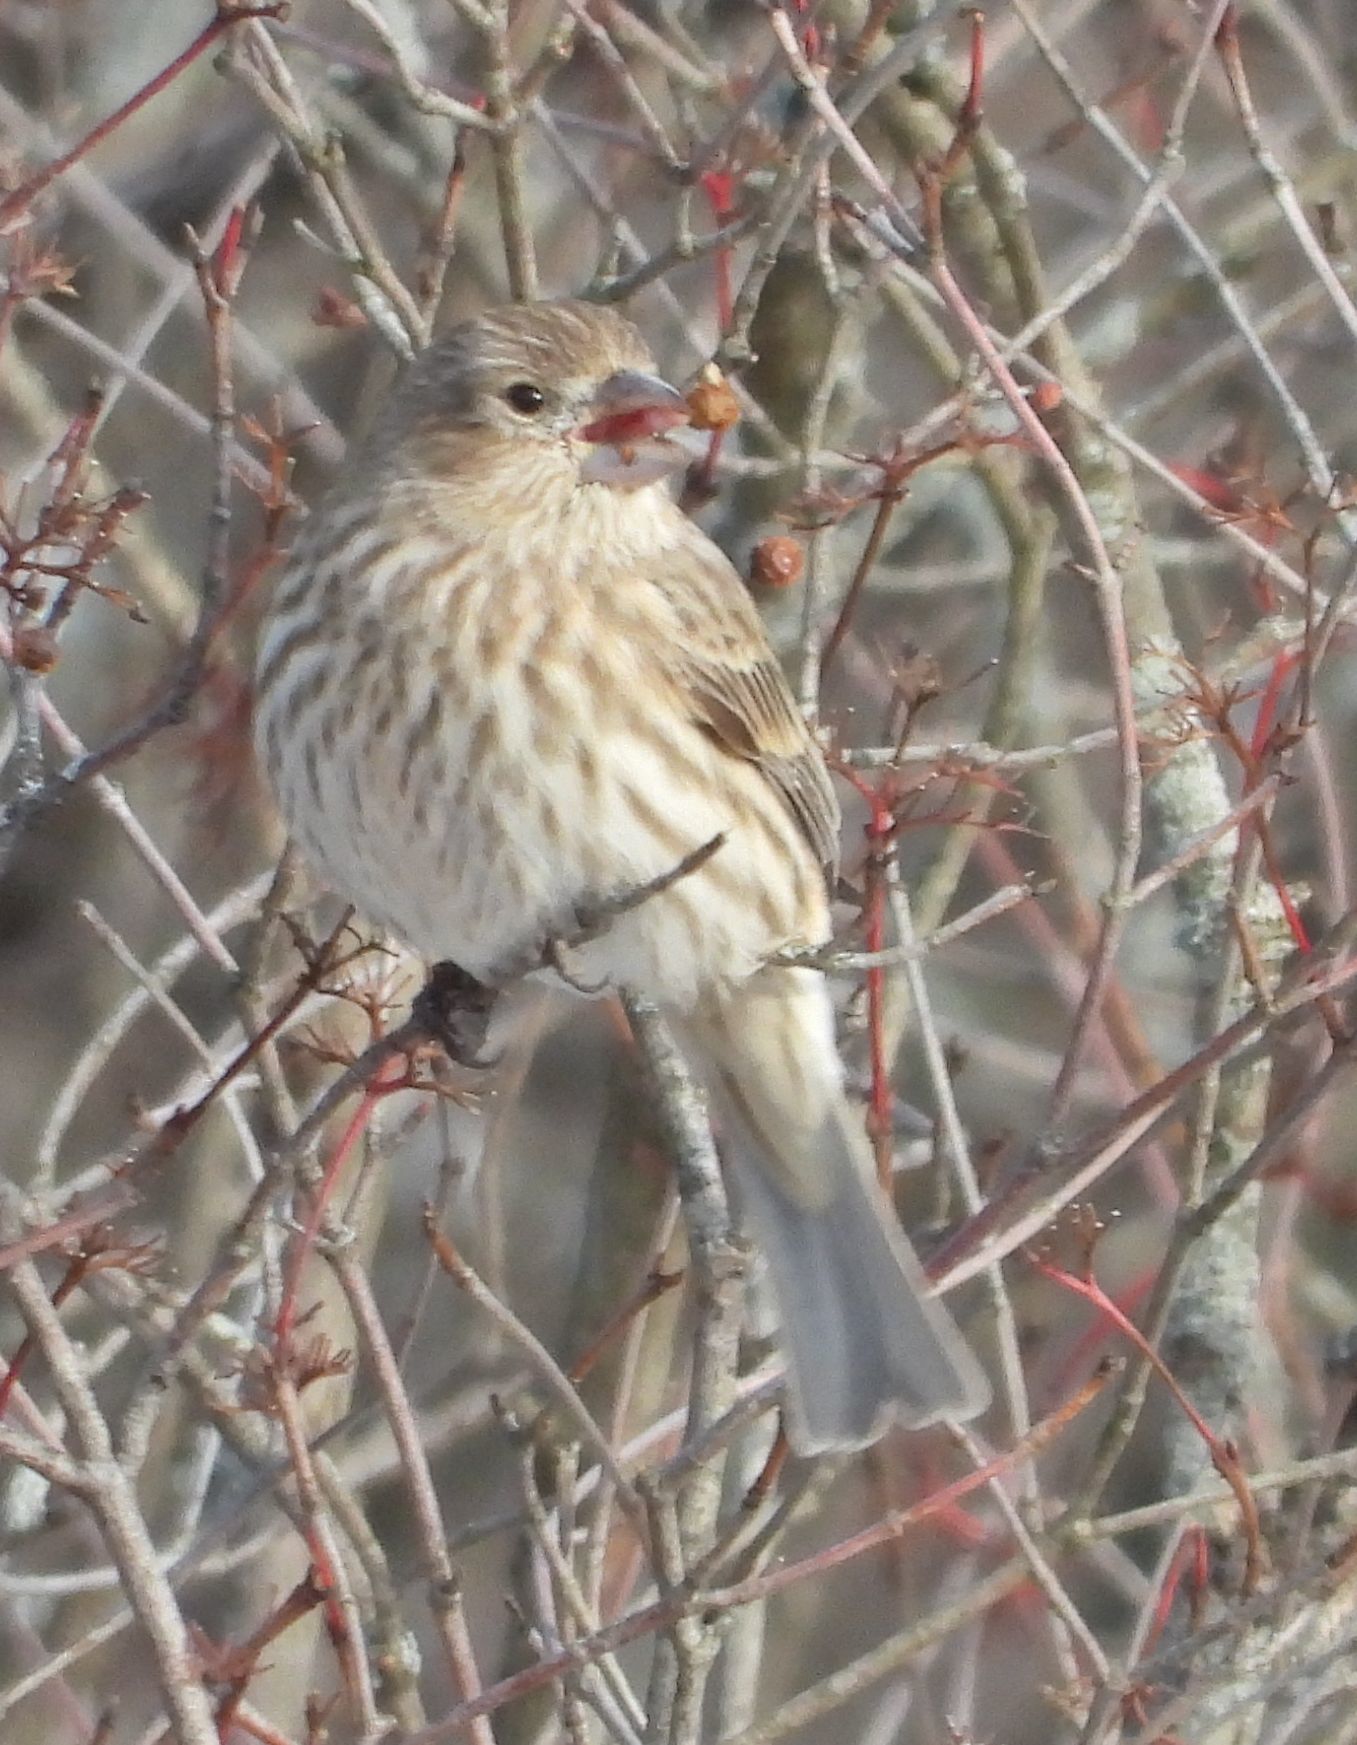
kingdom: Animalia
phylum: Chordata
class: Aves
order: Passeriformes
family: Fringillidae
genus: Haemorhous
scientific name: Haemorhous mexicanus
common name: House finch
